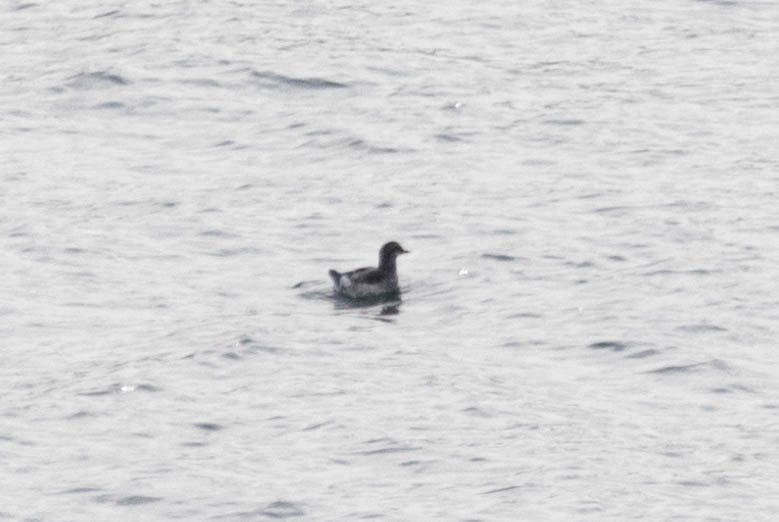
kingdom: Animalia
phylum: Chordata
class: Aves
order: Charadriiformes
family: Alcidae
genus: Cepphus
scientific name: Cepphus columba
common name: Pigeon guillemot
